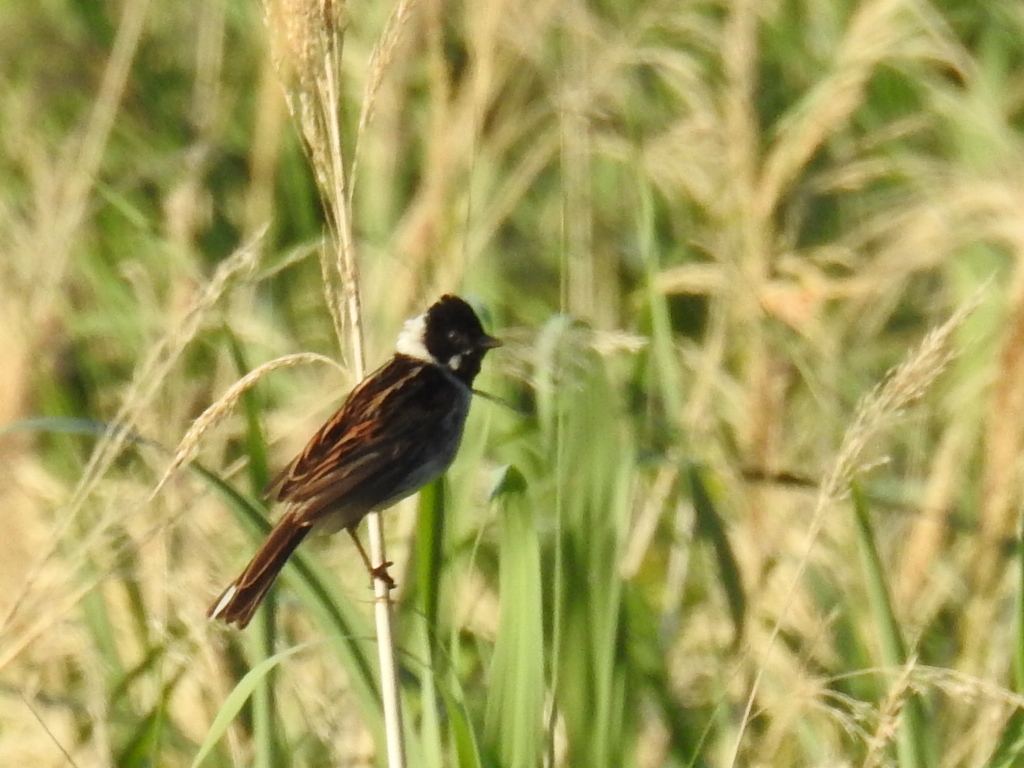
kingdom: Animalia
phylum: Chordata
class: Aves
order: Passeriformes
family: Emberizidae
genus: Emberiza
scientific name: Emberiza schoeniclus
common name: Reed bunting
